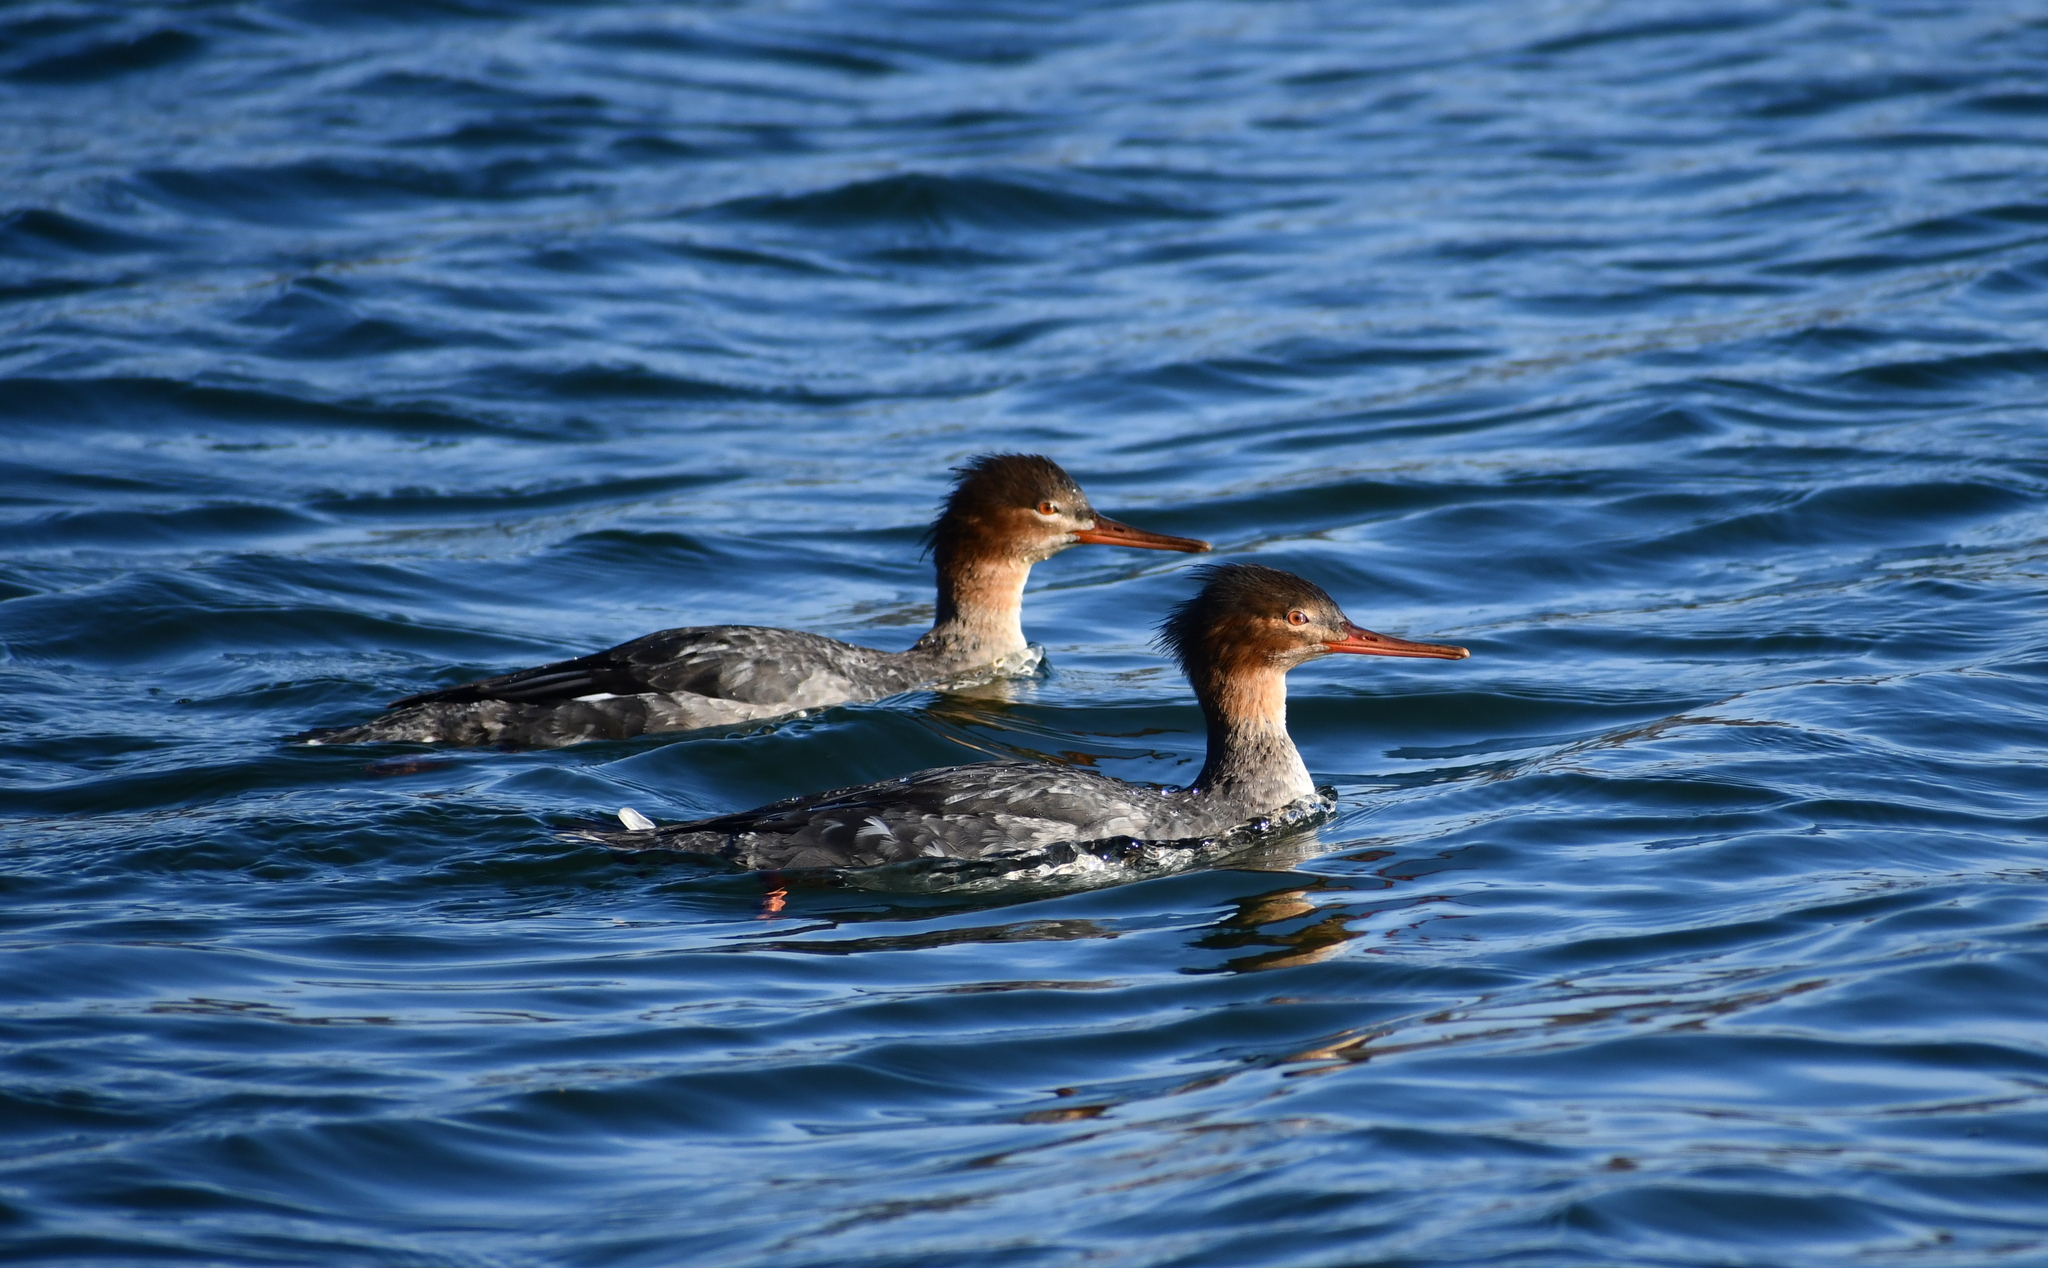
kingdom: Animalia
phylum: Chordata
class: Aves
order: Anseriformes
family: Anatidae
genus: Mergus
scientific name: Mergus serrator
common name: Red-breasted merganser
